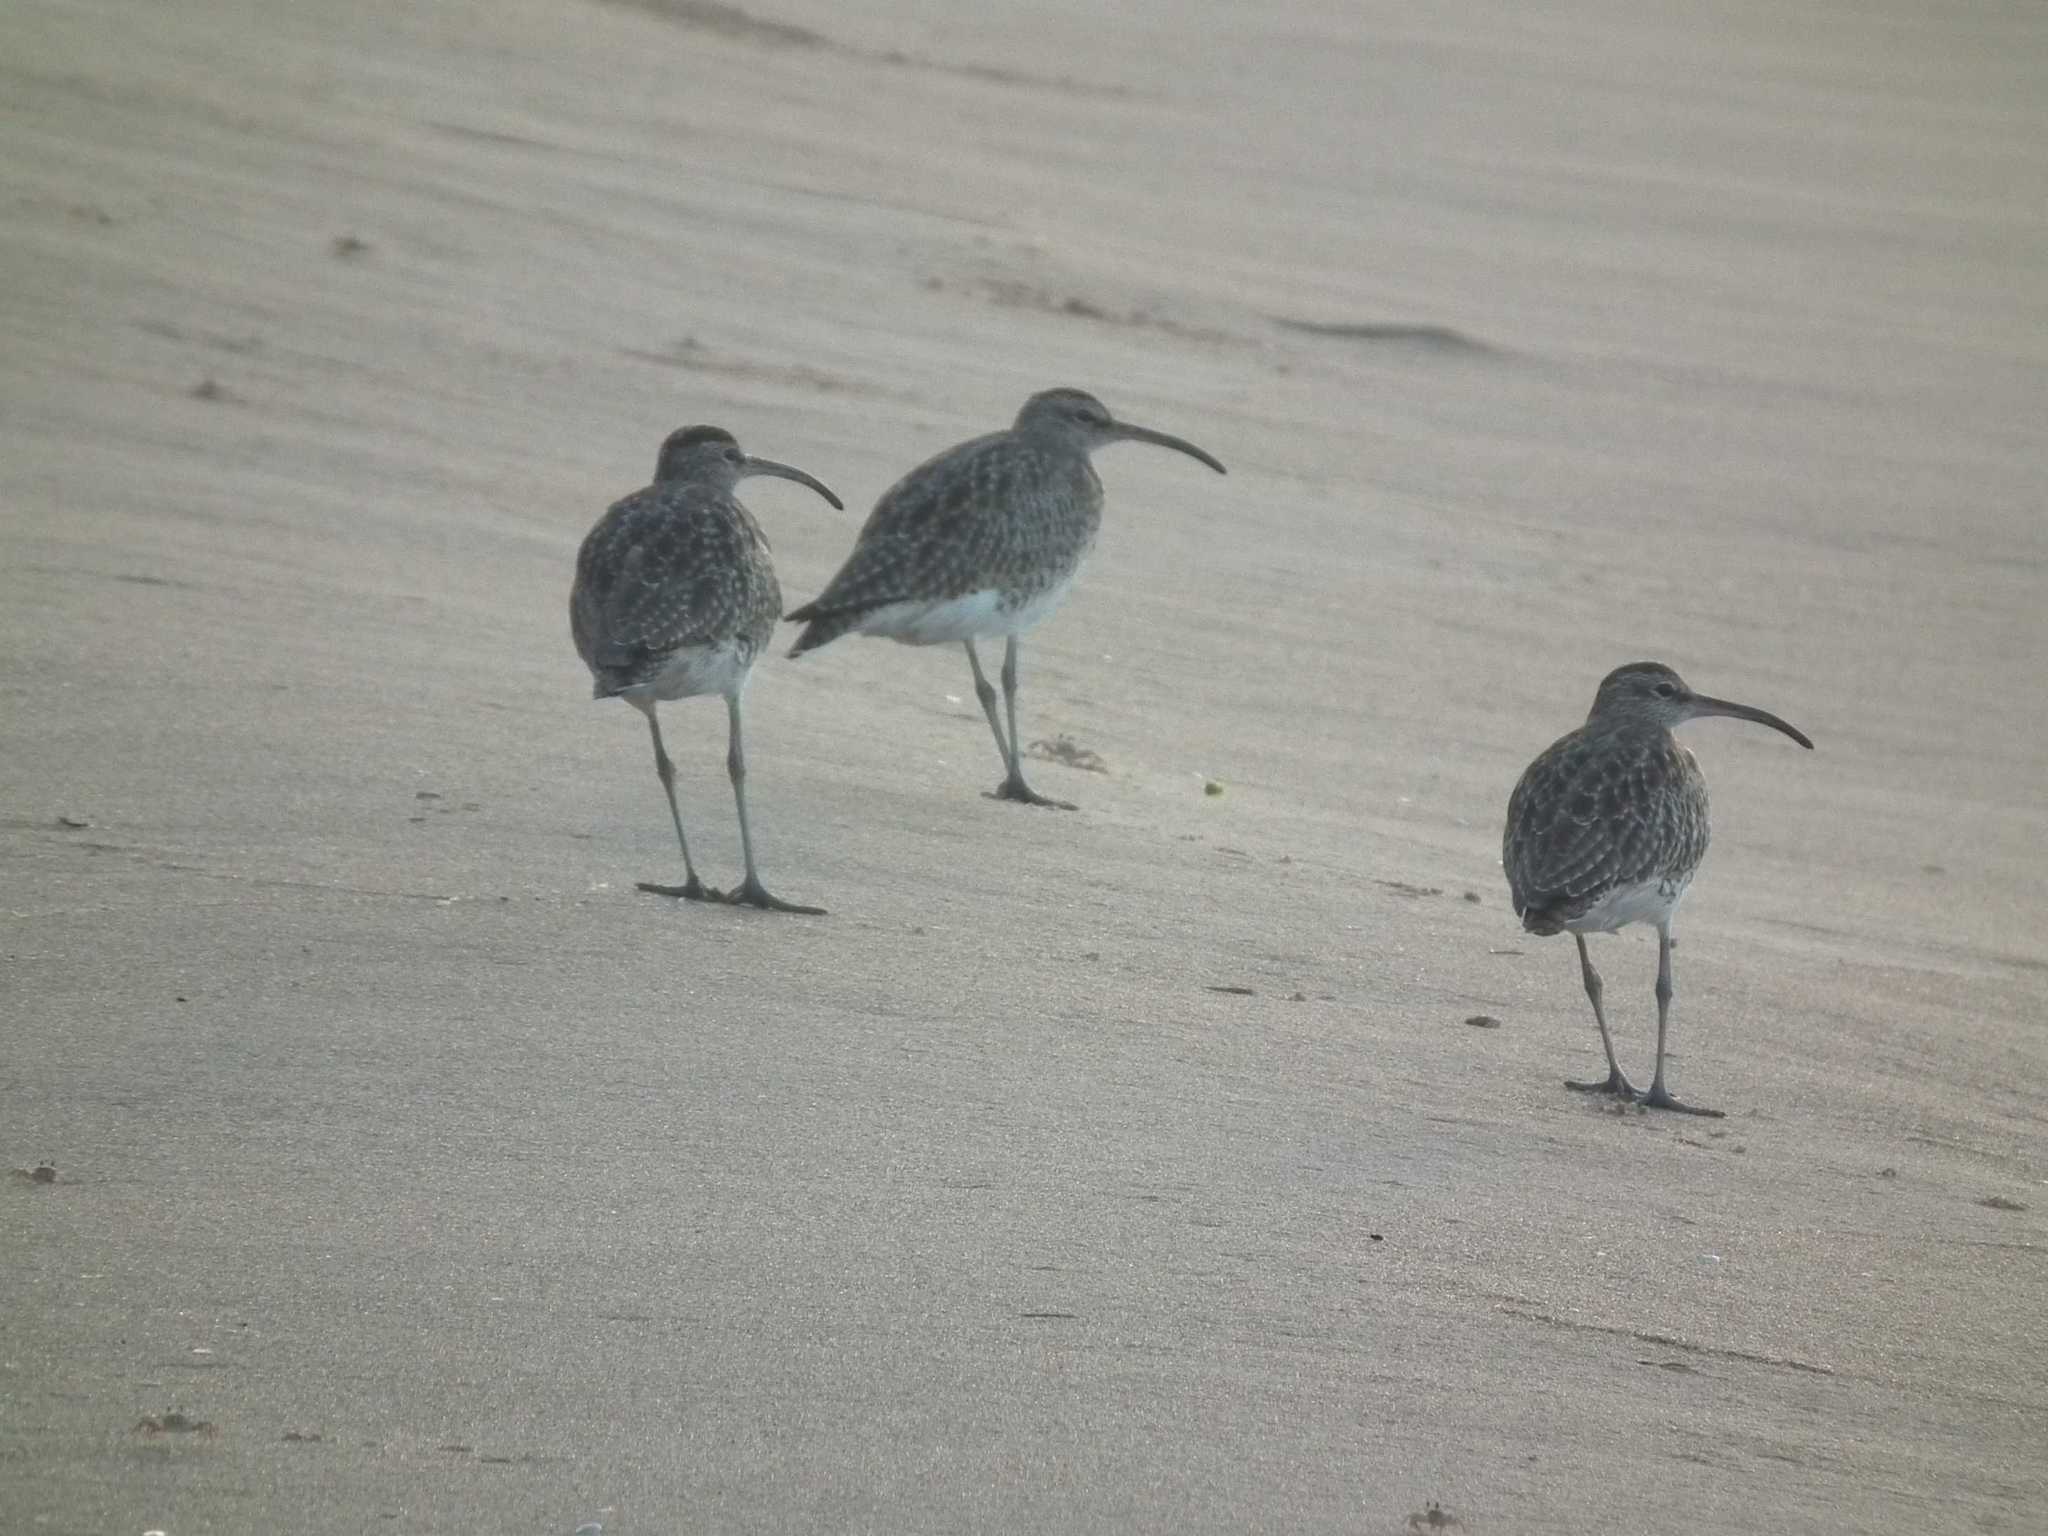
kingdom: Animalia
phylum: Chordata
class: Aves
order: Charadriiformes
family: Scolopacidae
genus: Numenius
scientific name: Numenius phaeopus
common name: Whimbrel
